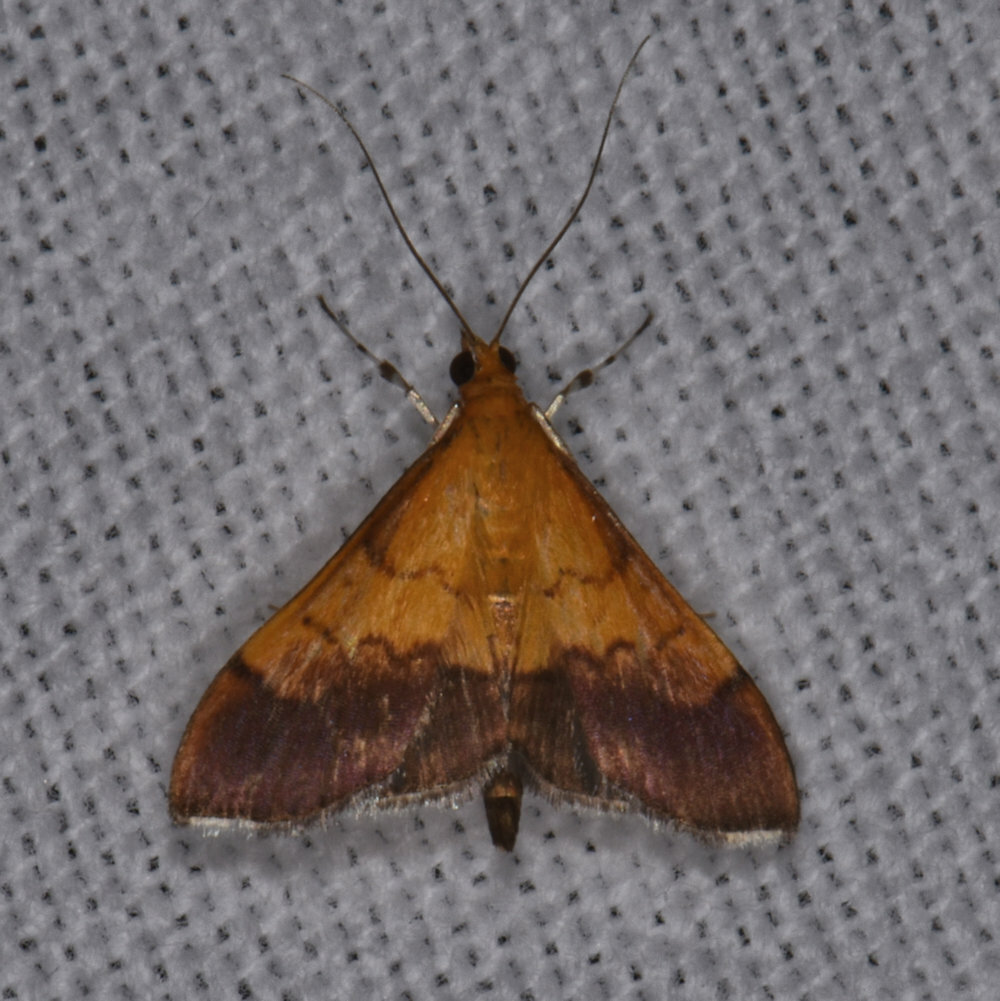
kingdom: Animalia
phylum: Arthropoda
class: Insecta
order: Lepidoptera
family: Crambidae
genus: Pyrausta
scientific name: Pyrausta bicoloralis
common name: Bicolored pyrausta moth
